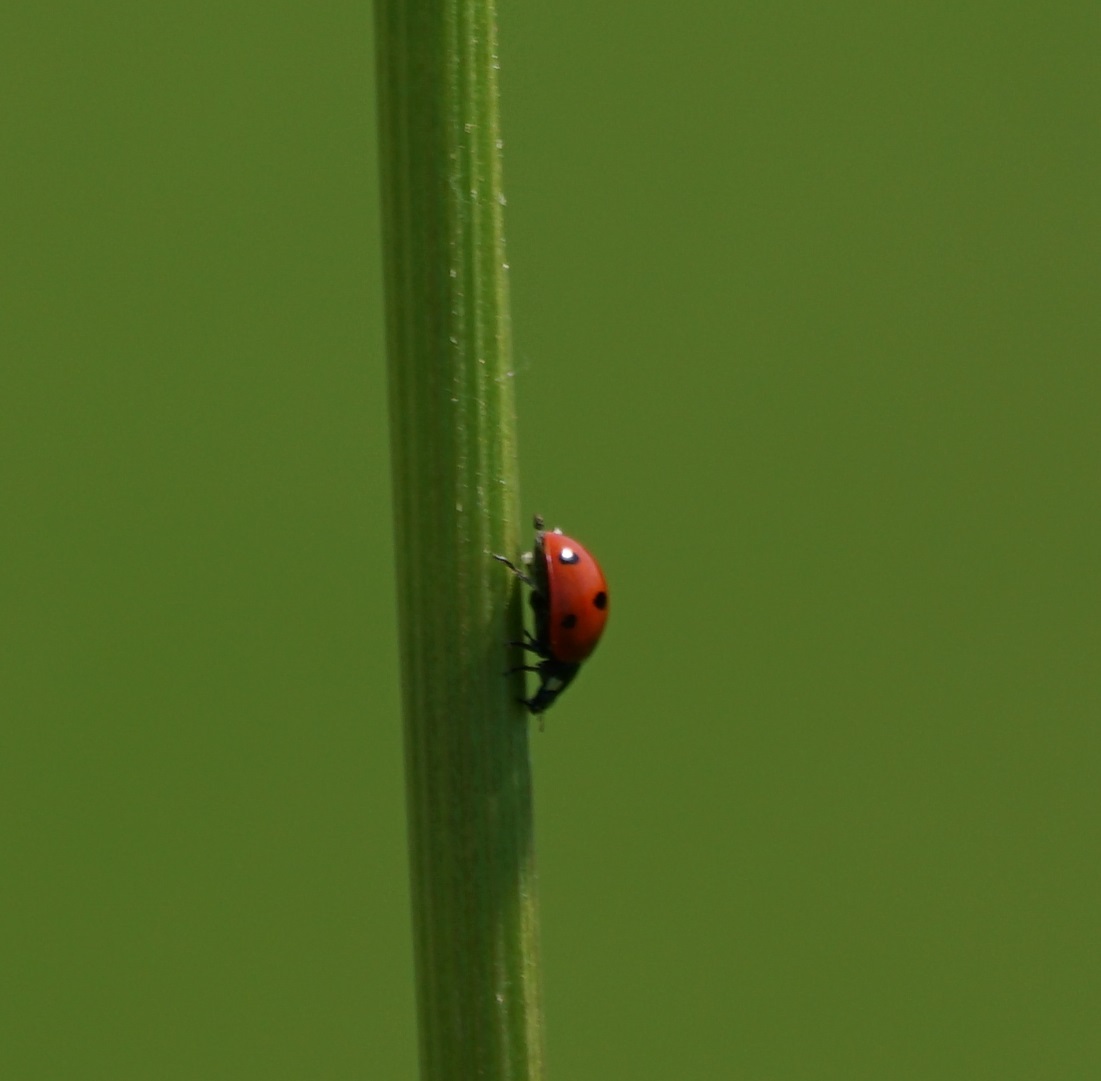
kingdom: Animalia
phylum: Arthropoda
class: Insecta
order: Coleoptera
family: Coccinellidae
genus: Coccinella
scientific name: Coccinella septempunctata
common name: Sevenspotted lady beetle
